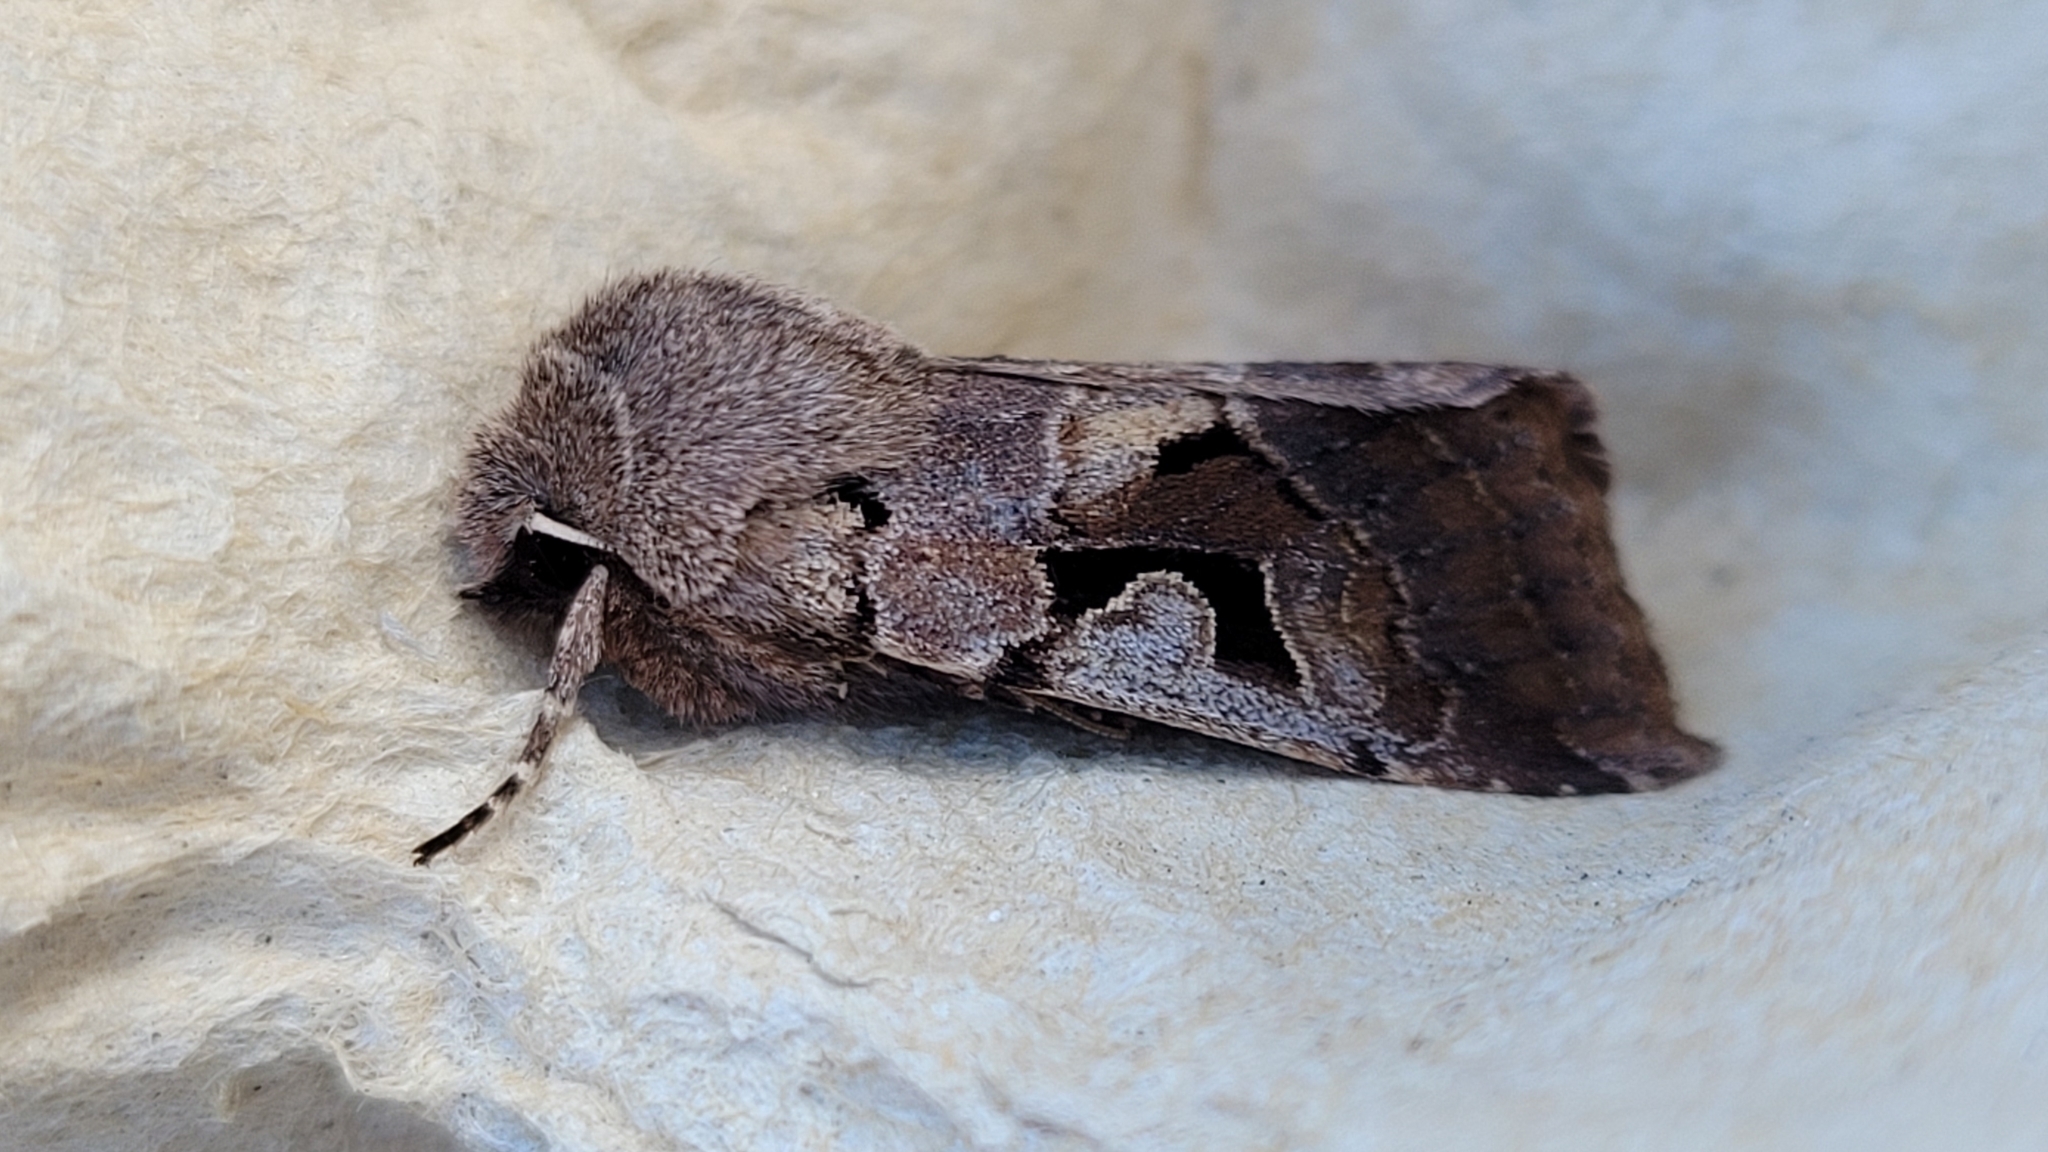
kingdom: Animalia
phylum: Arthropoda
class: Insecta
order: Lepidoptera
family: Noctuidae
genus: Orthosia
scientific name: Orthosia gothica
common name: Hebrew character
